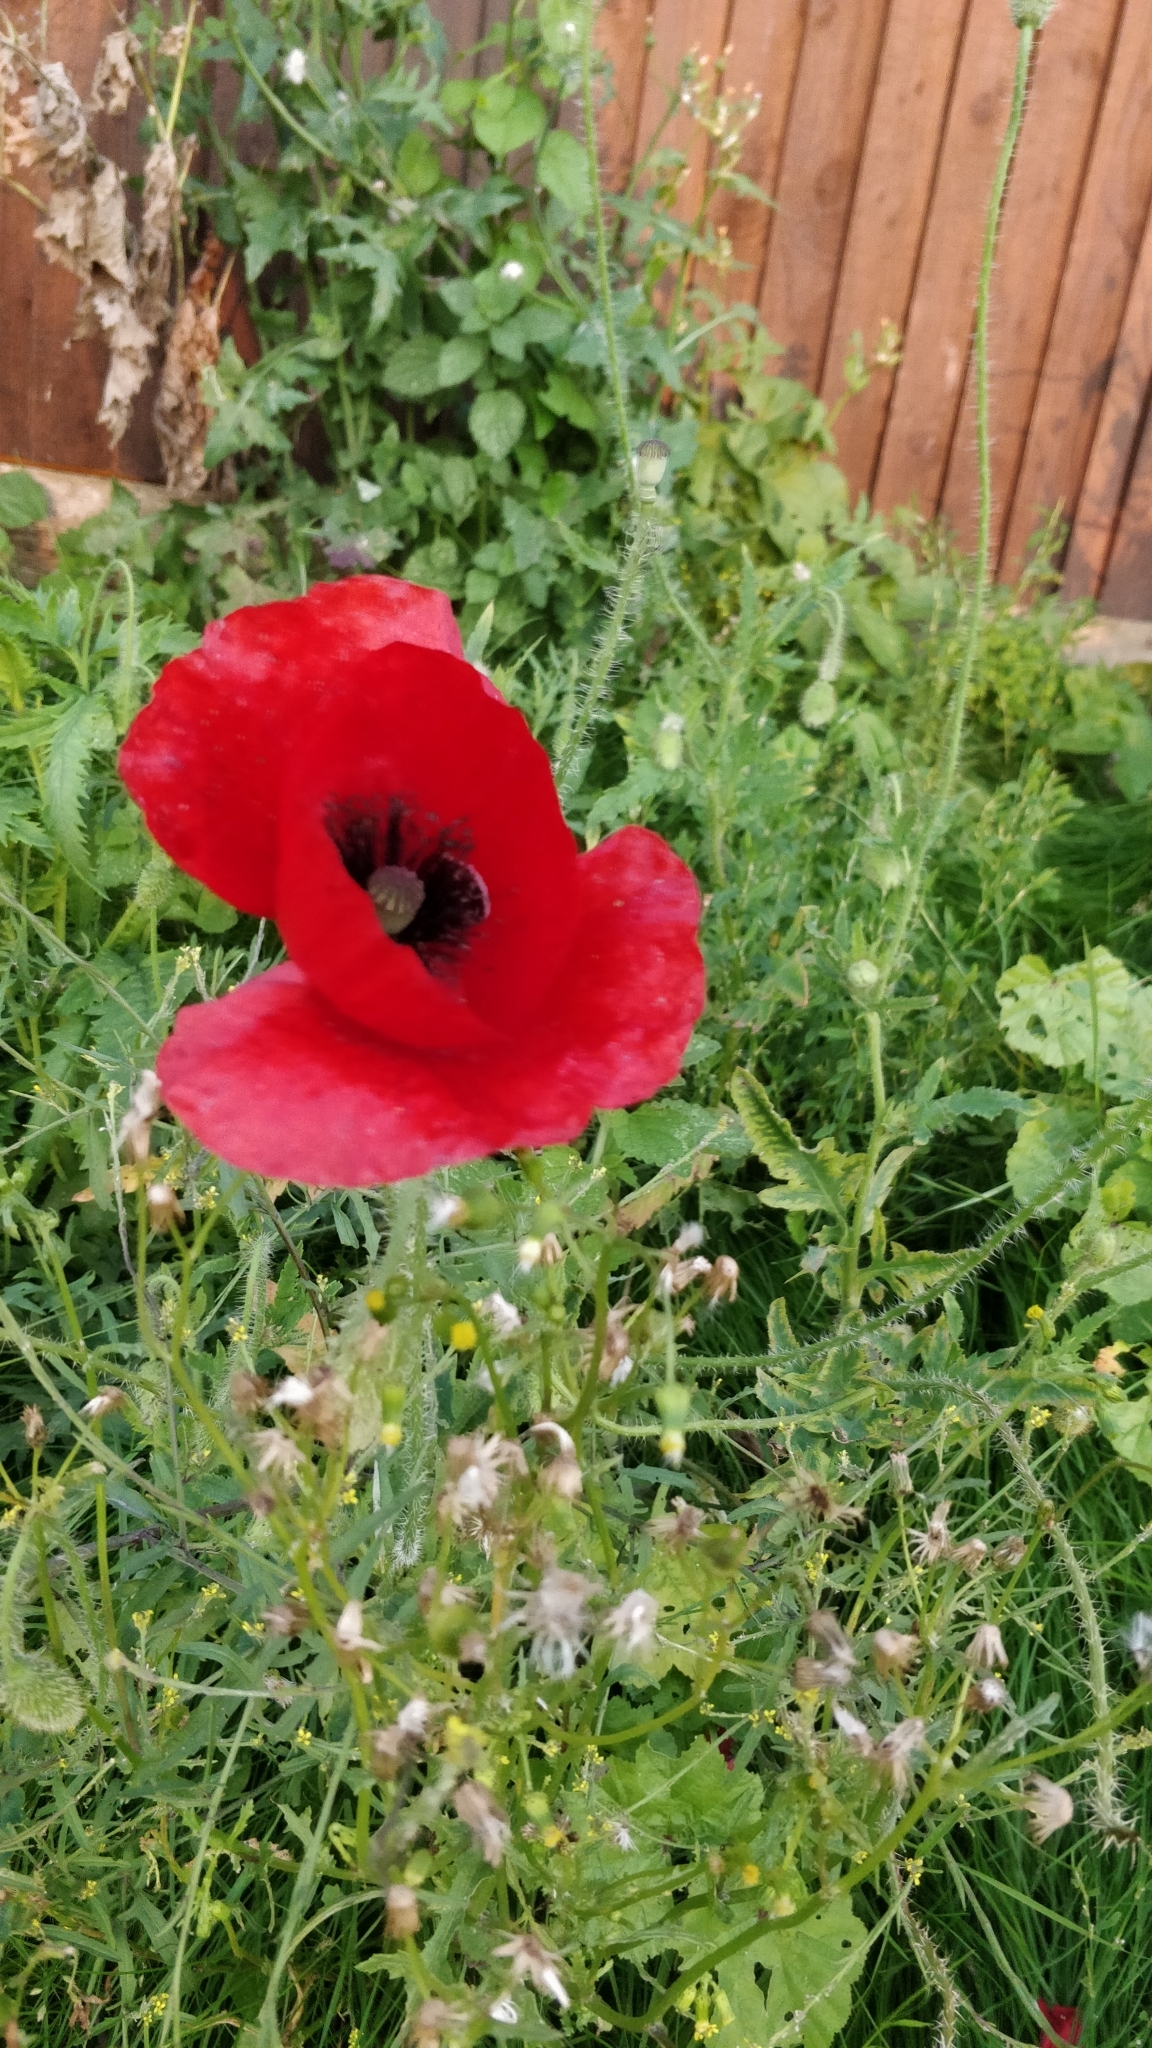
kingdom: Plantae
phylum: Tracheophyta
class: Magnoliopsida
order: Ranunculales
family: Papaveraceae
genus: Papaver
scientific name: Papaver rhoeas
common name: Corn poppy
